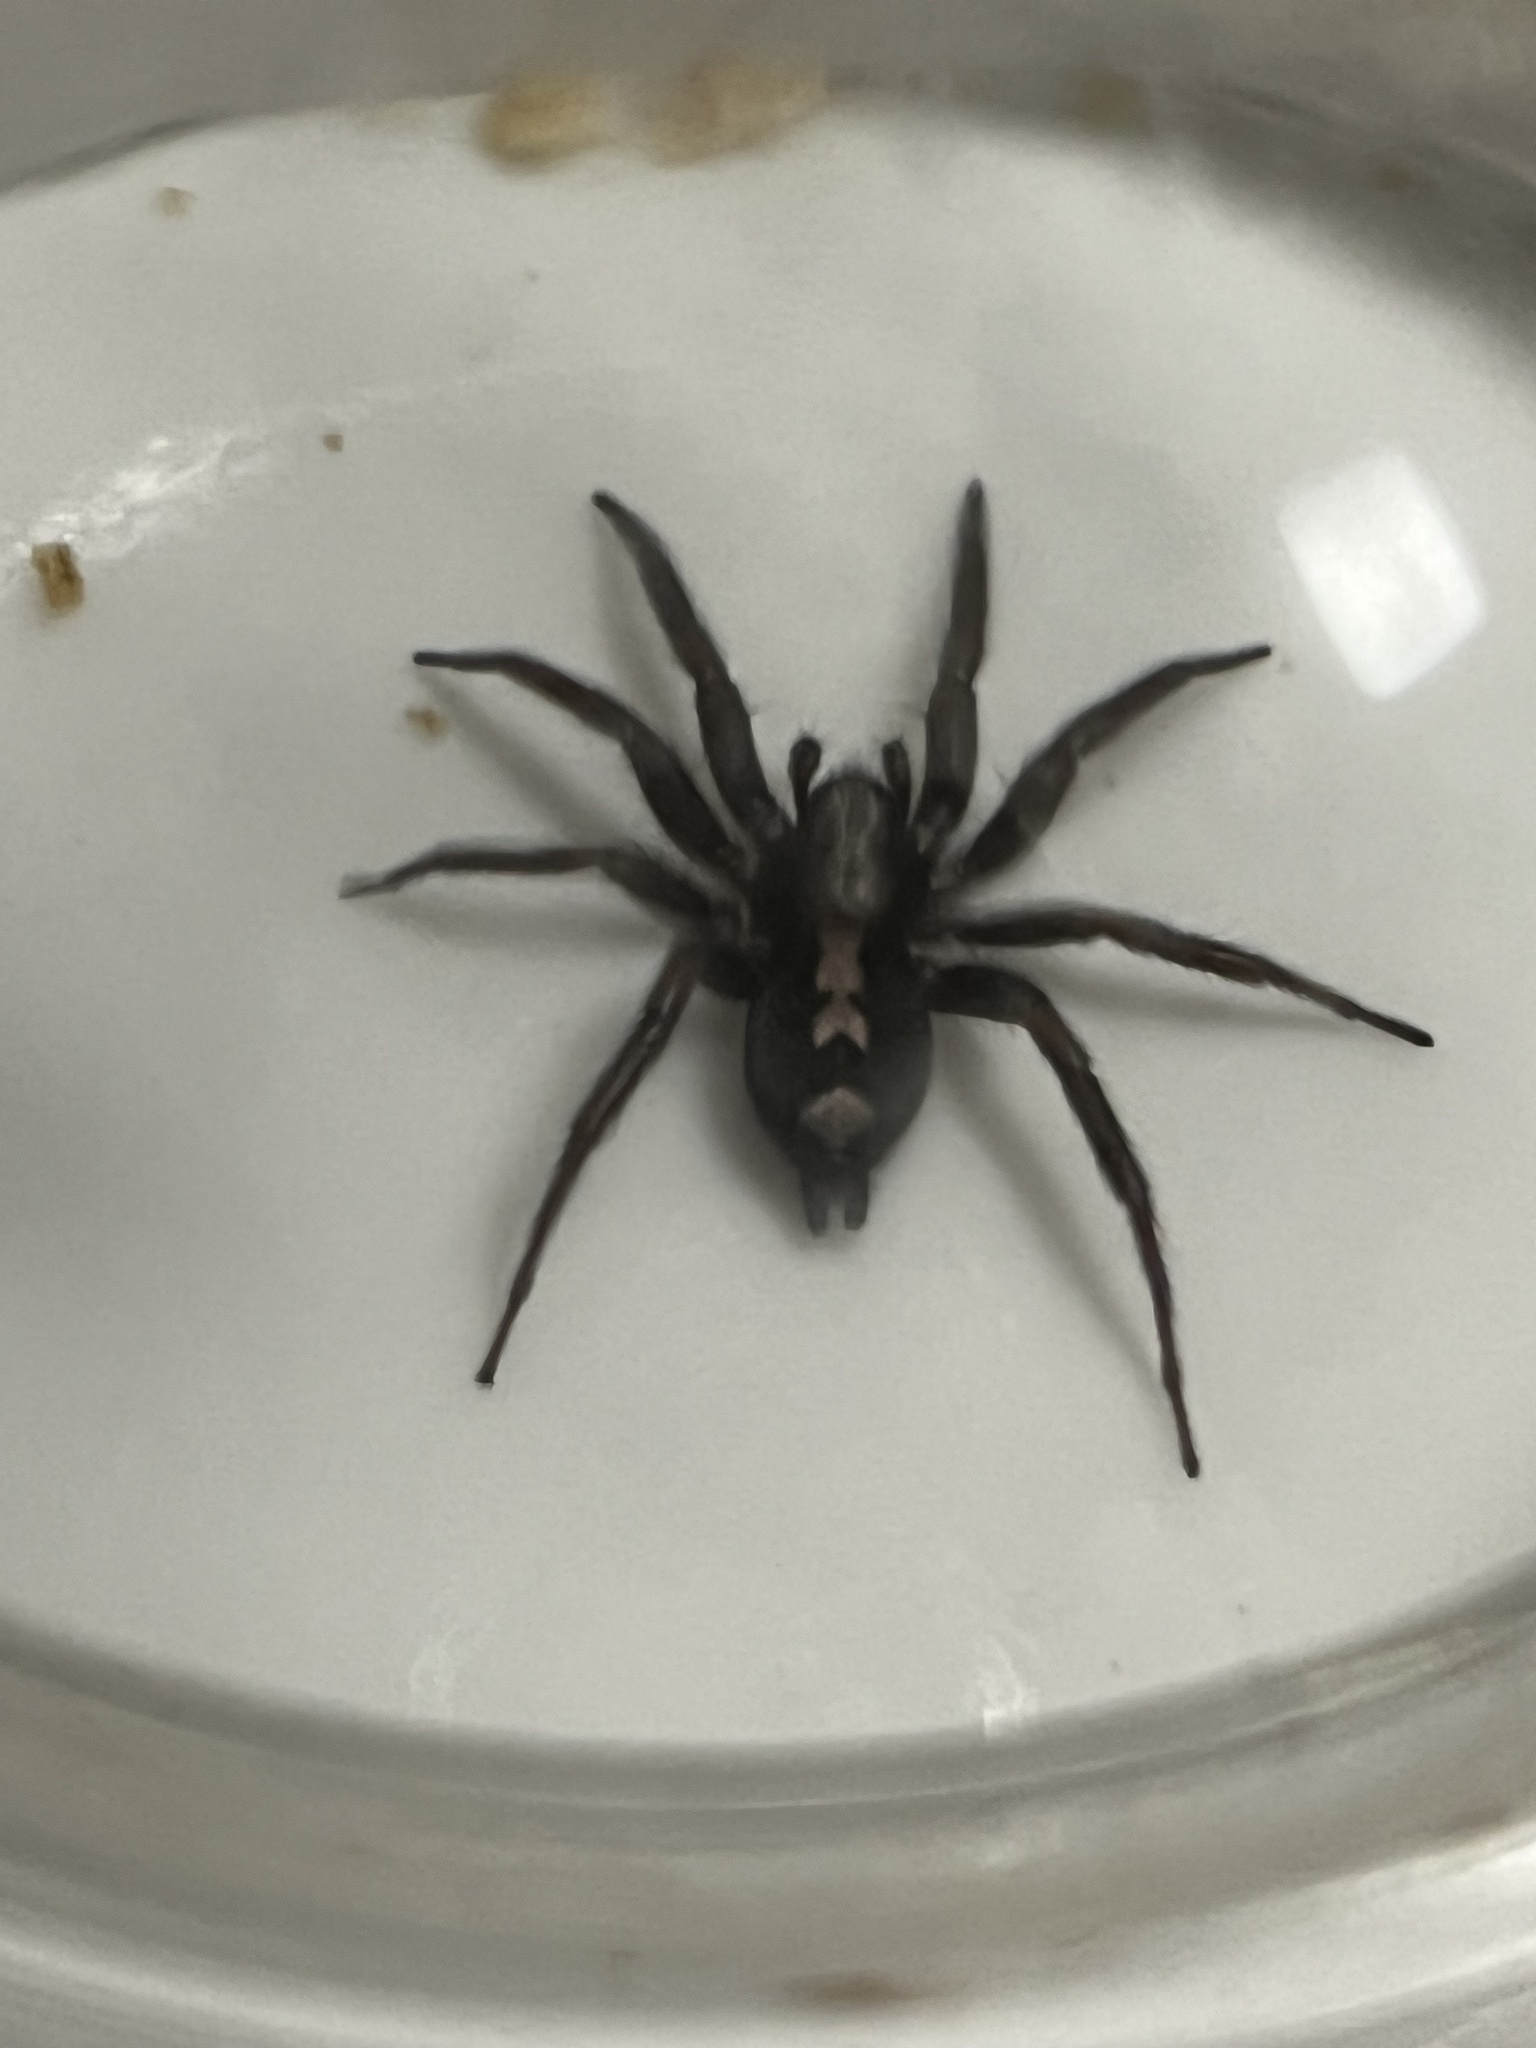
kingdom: Animalia
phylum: Arthropoda
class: Arachnida
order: Araneae
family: Gnaphosidae
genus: Herpyllus
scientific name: Herpyllus ecclesiasticus
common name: Eastern parson spider
